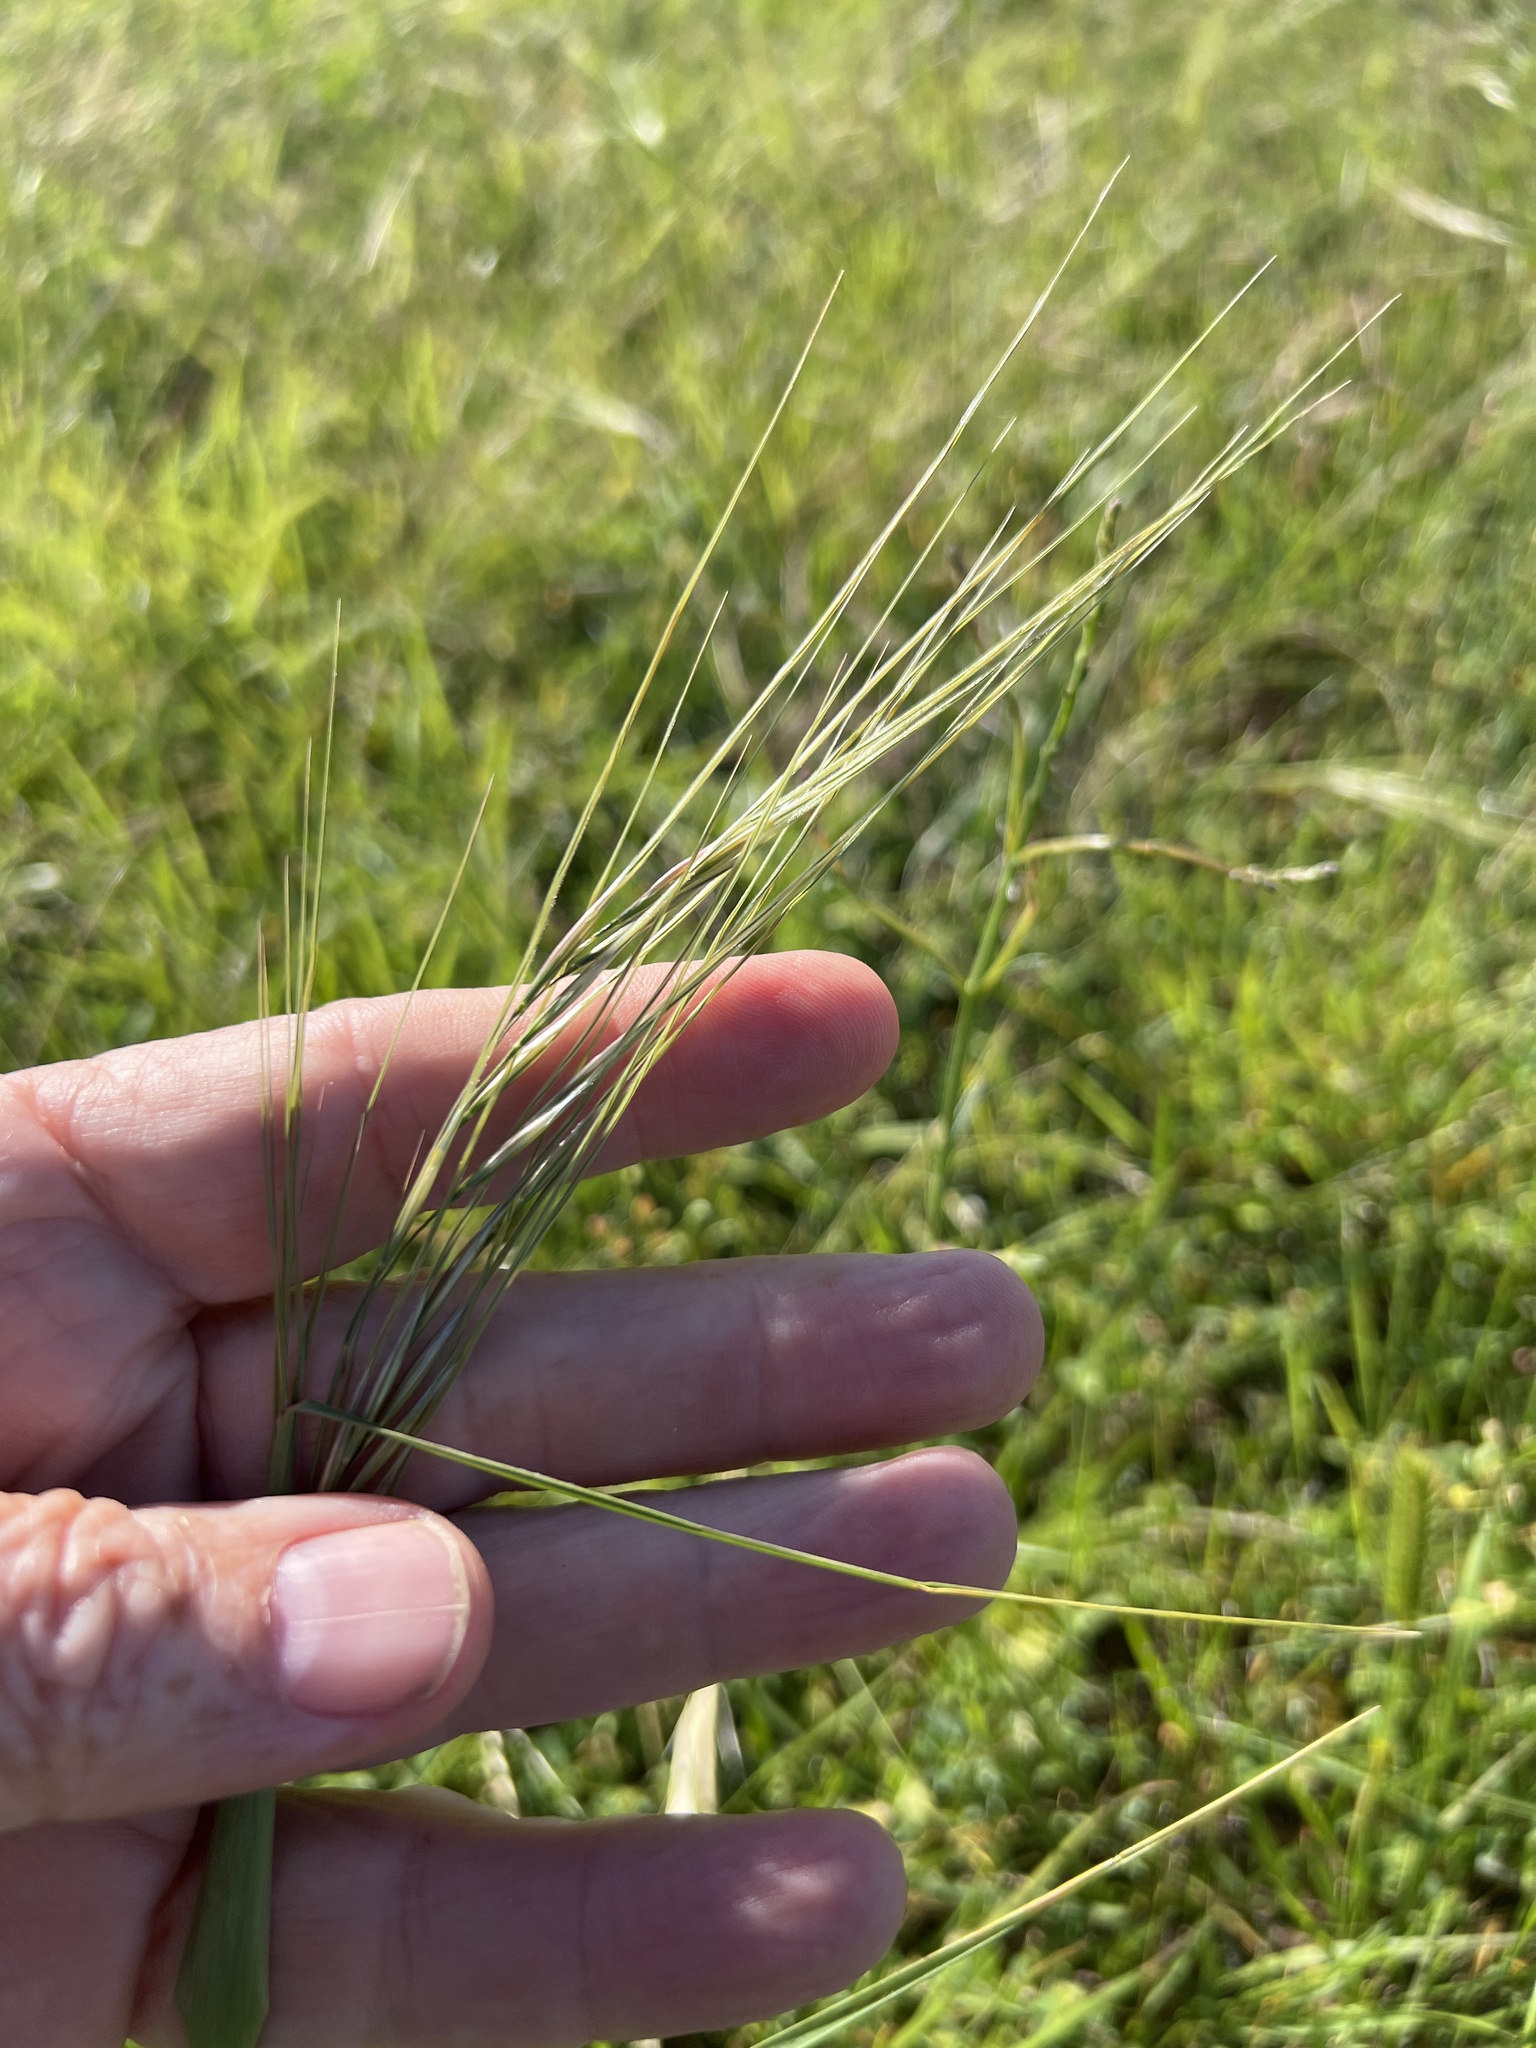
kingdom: Plantae
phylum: Tracheophyta
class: Liliopsida
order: Poales
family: Poaceae
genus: Nassella
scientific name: Nassella leucotricha
